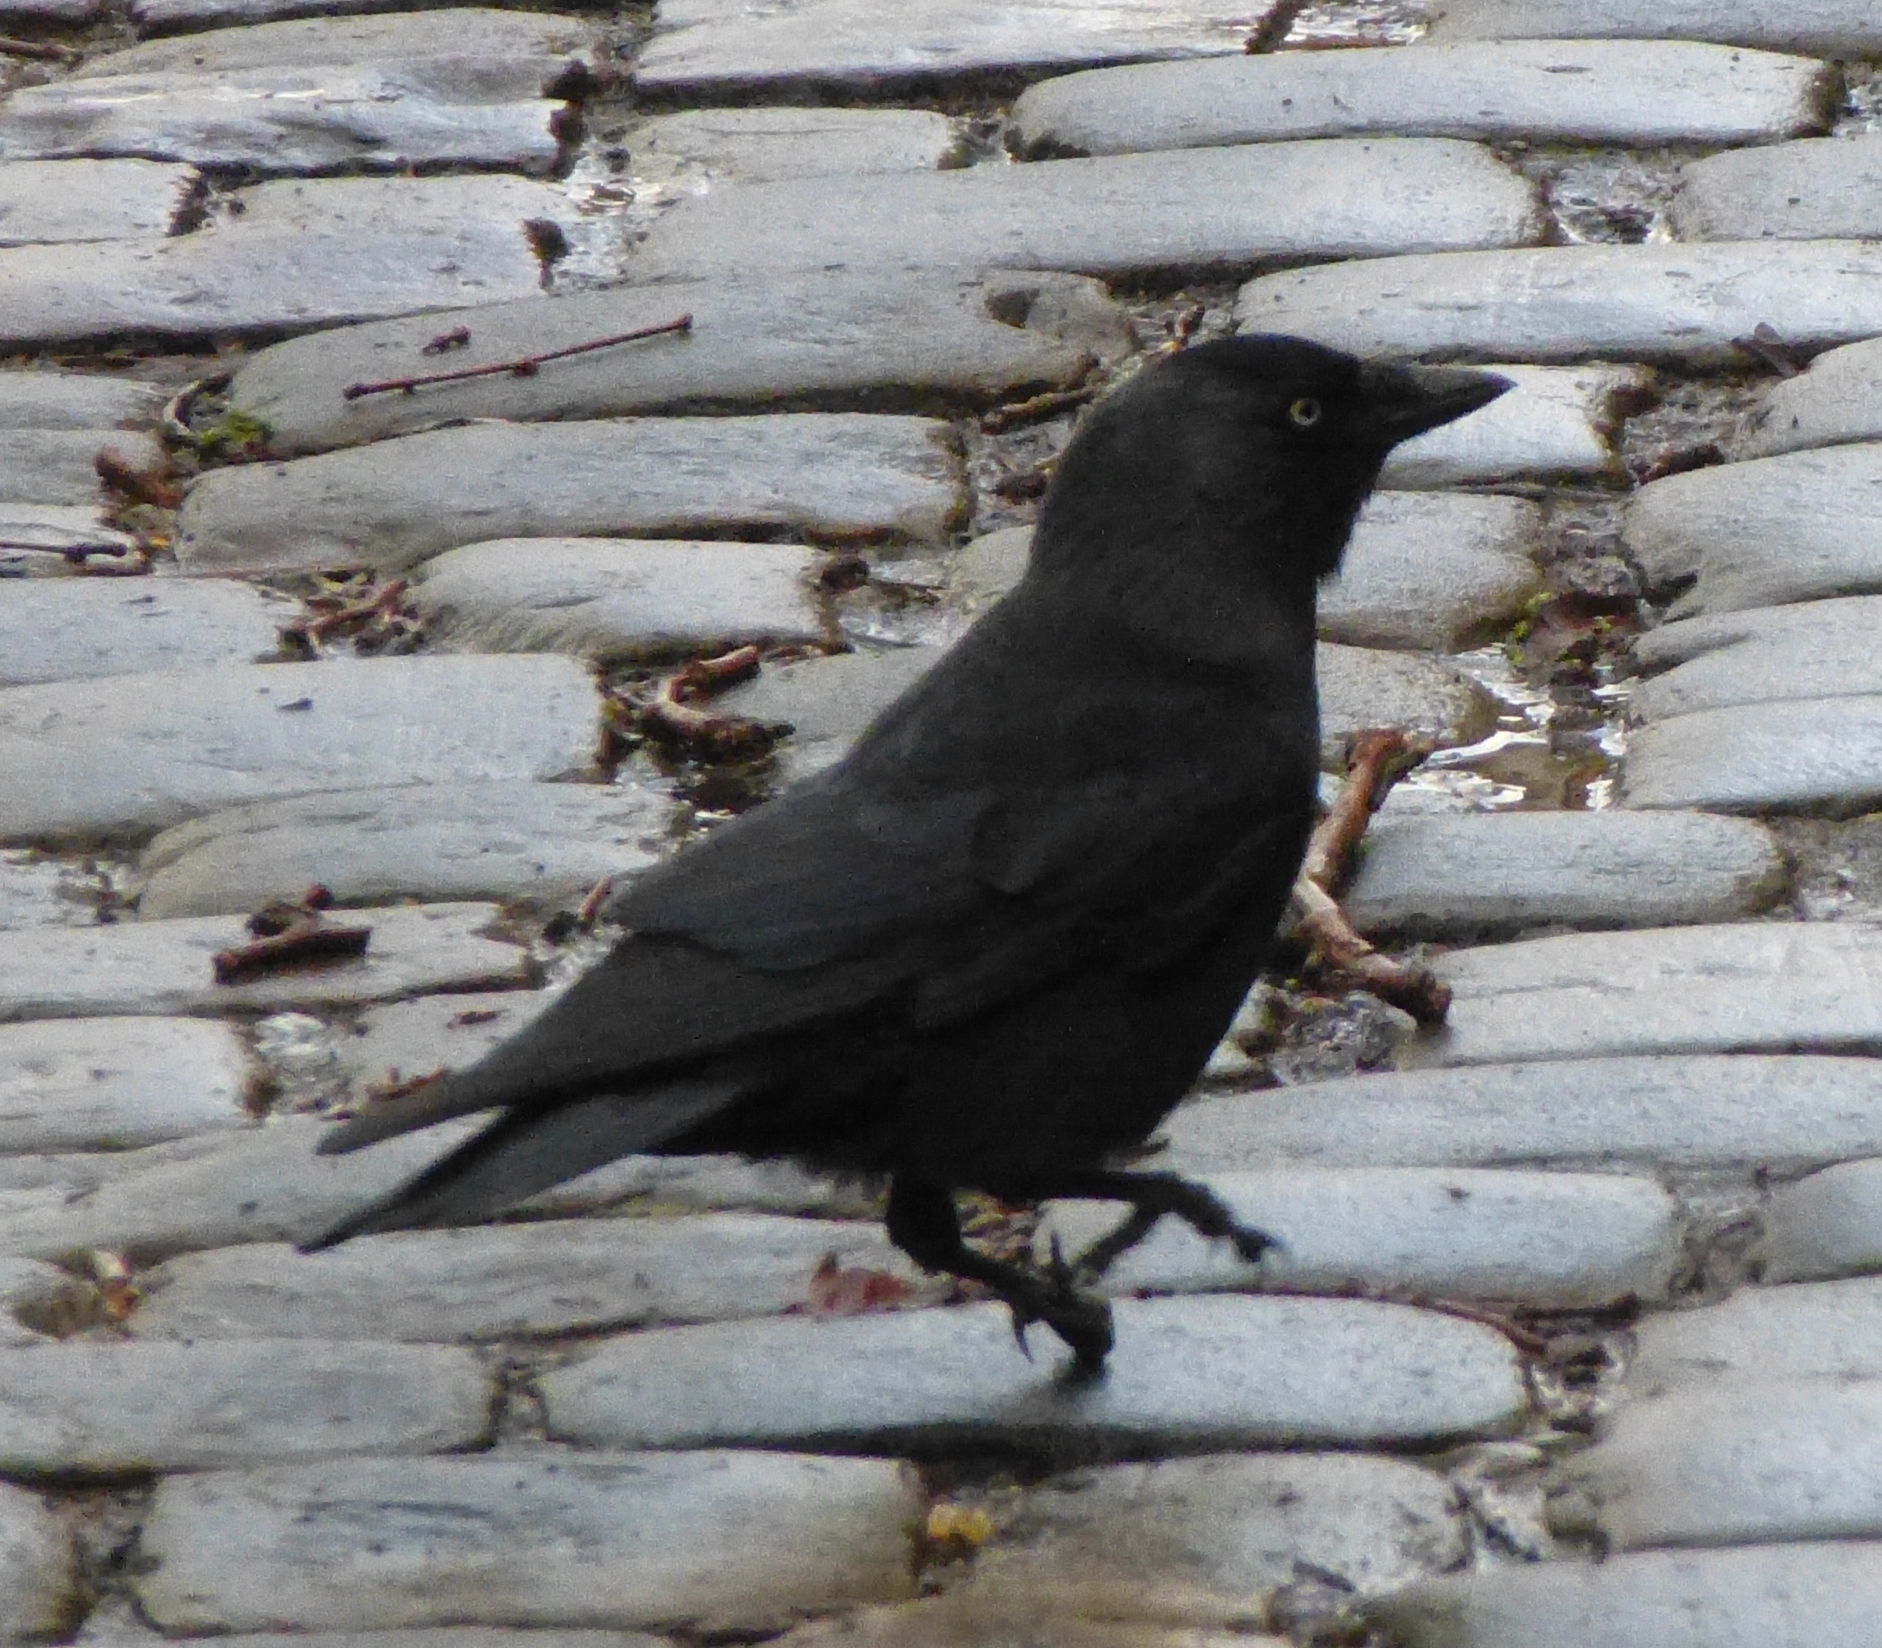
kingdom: Animalia
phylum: Chordata
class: Aves
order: Passeriformes
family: Corvidae
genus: Coloeus
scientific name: Coloeus monedula
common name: Western jackdaw
